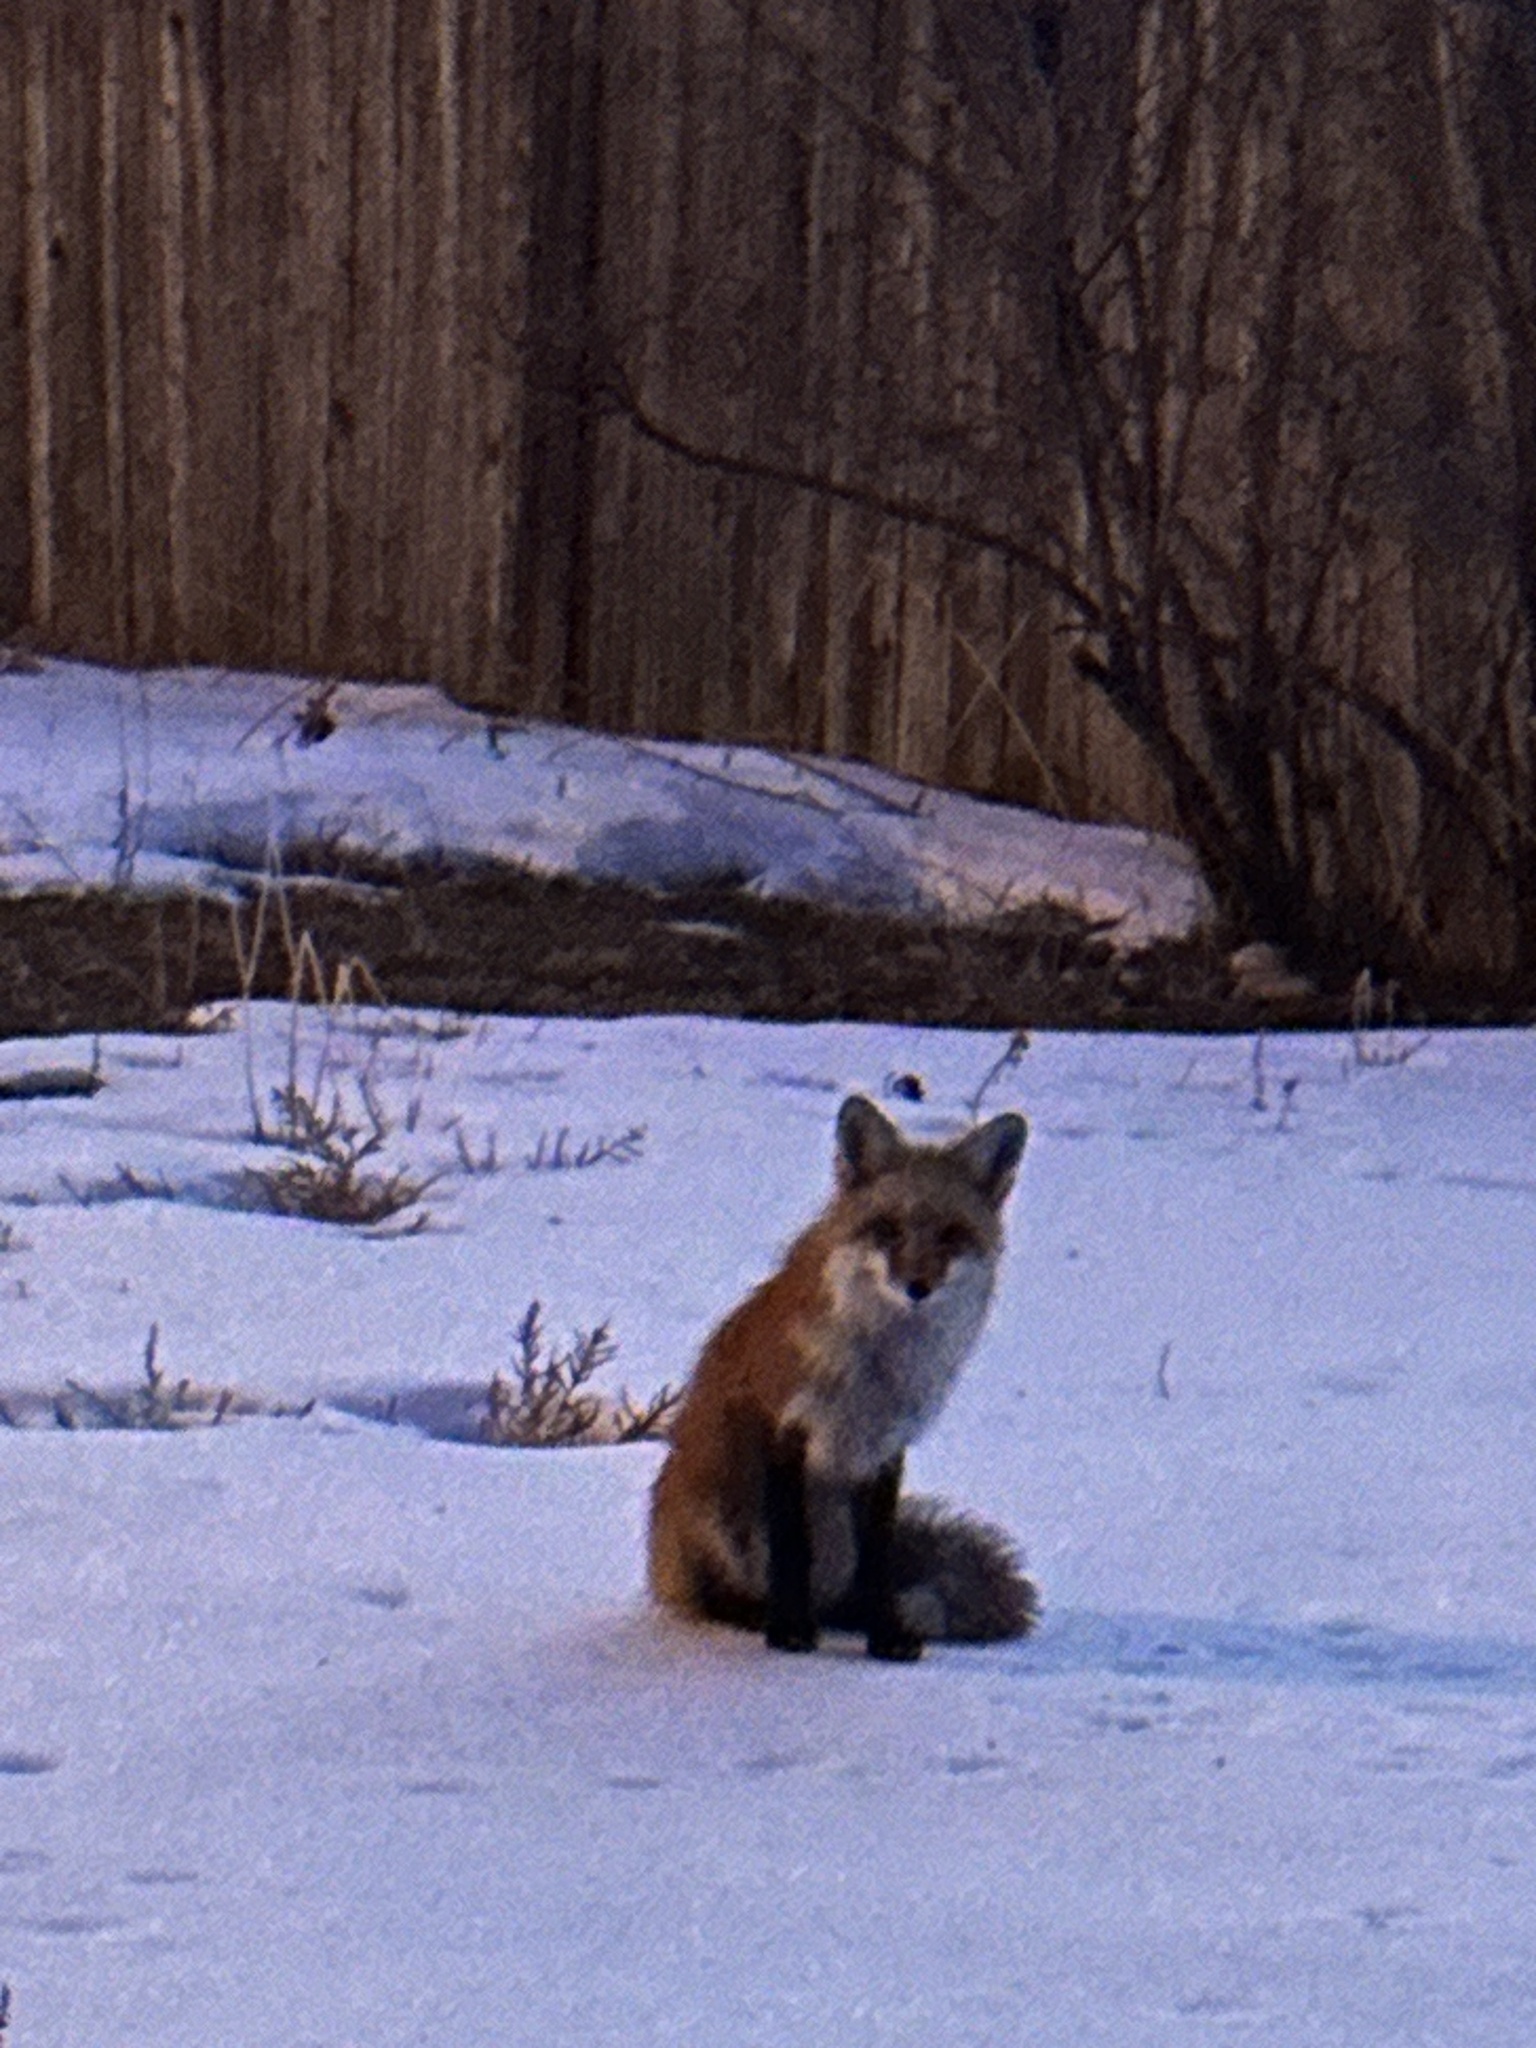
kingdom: Animalia
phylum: Chordata
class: Mammalia
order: Carnivora
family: Canidae
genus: Vulpes
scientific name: Vulpes vulpes
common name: Red fox
